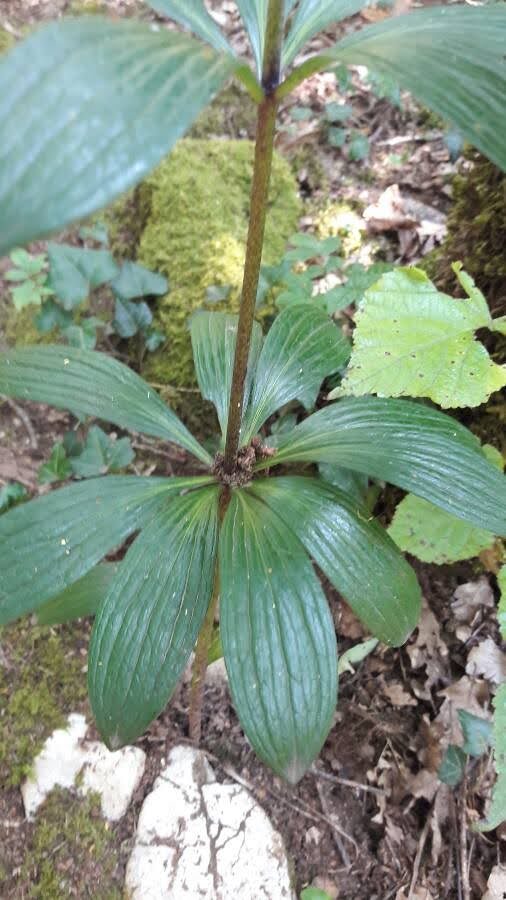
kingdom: Plantae
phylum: Tracheophyta
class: Liliopsida
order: Liliales
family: Liliaceae
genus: Lilium
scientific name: Lilium martagon
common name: Martagon lily
